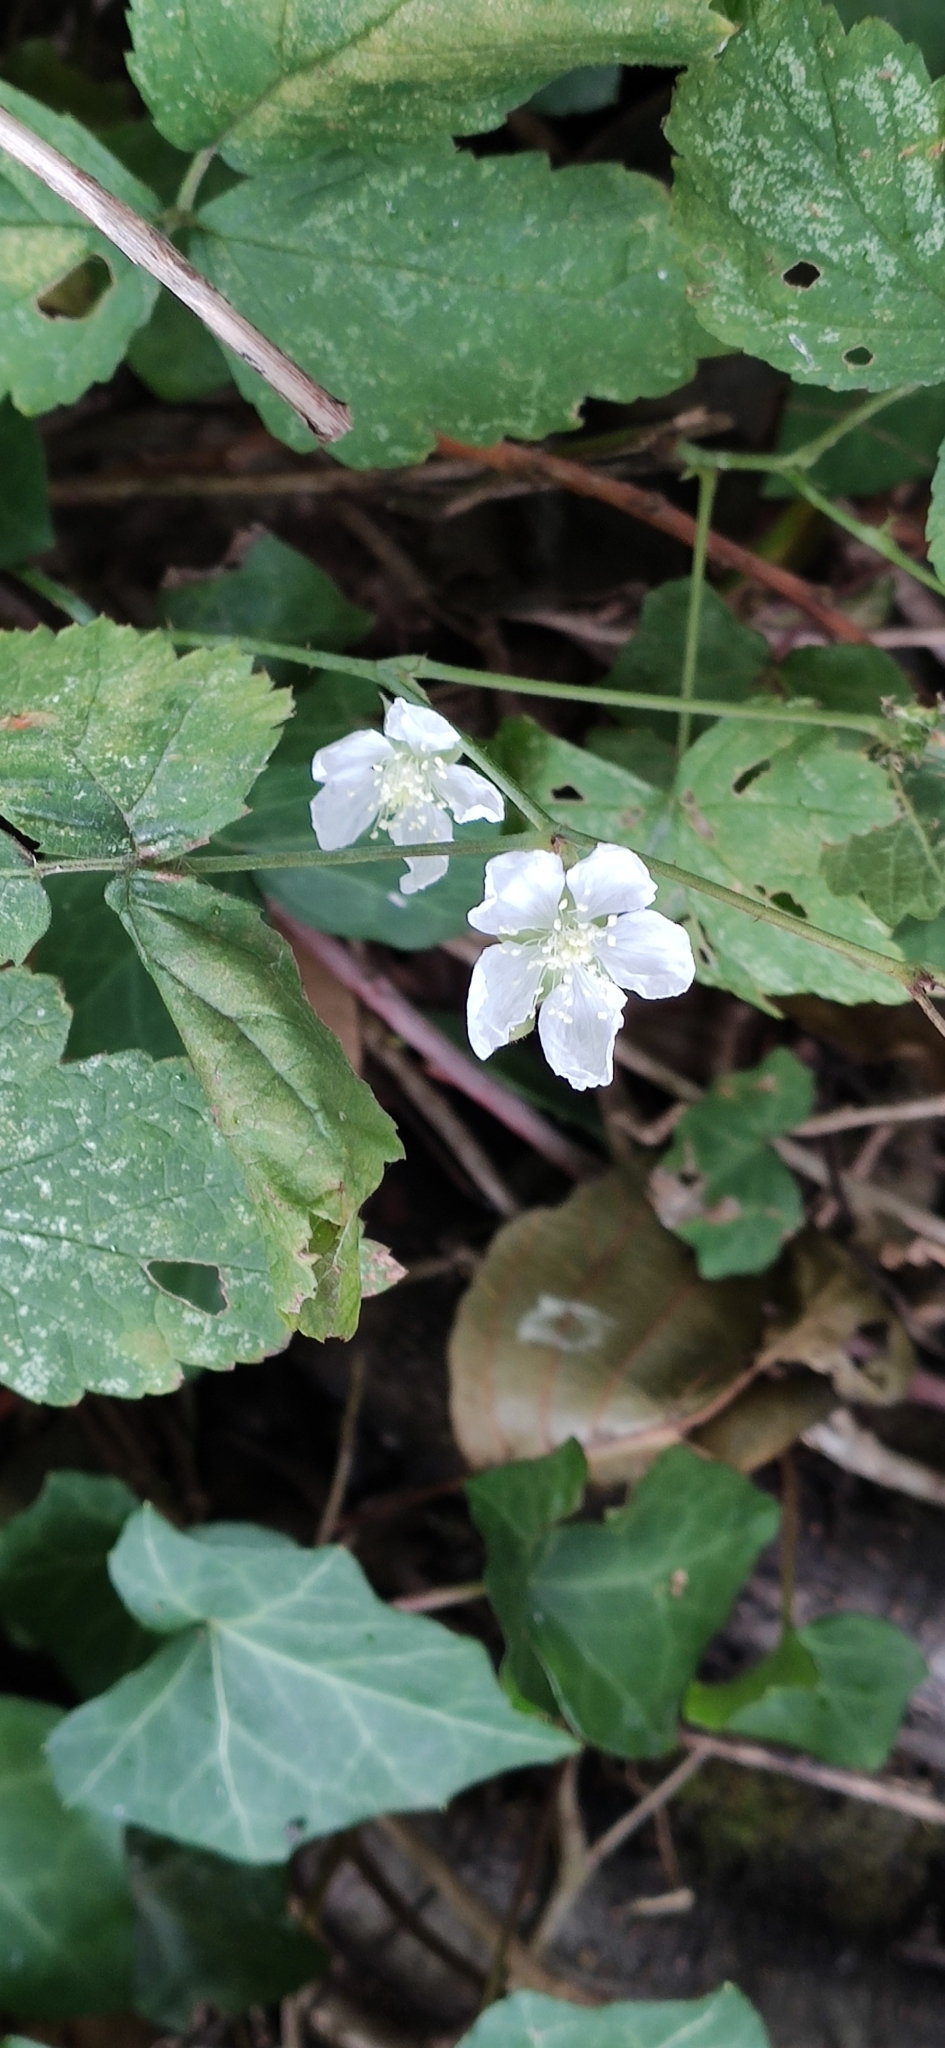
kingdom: Plantae
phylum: Tracheophyta
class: Magnoliopsida
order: Oxalidales
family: Oxalidaceae
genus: Oxalis
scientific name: Oxalis acetosella
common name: Wood-sorrel
